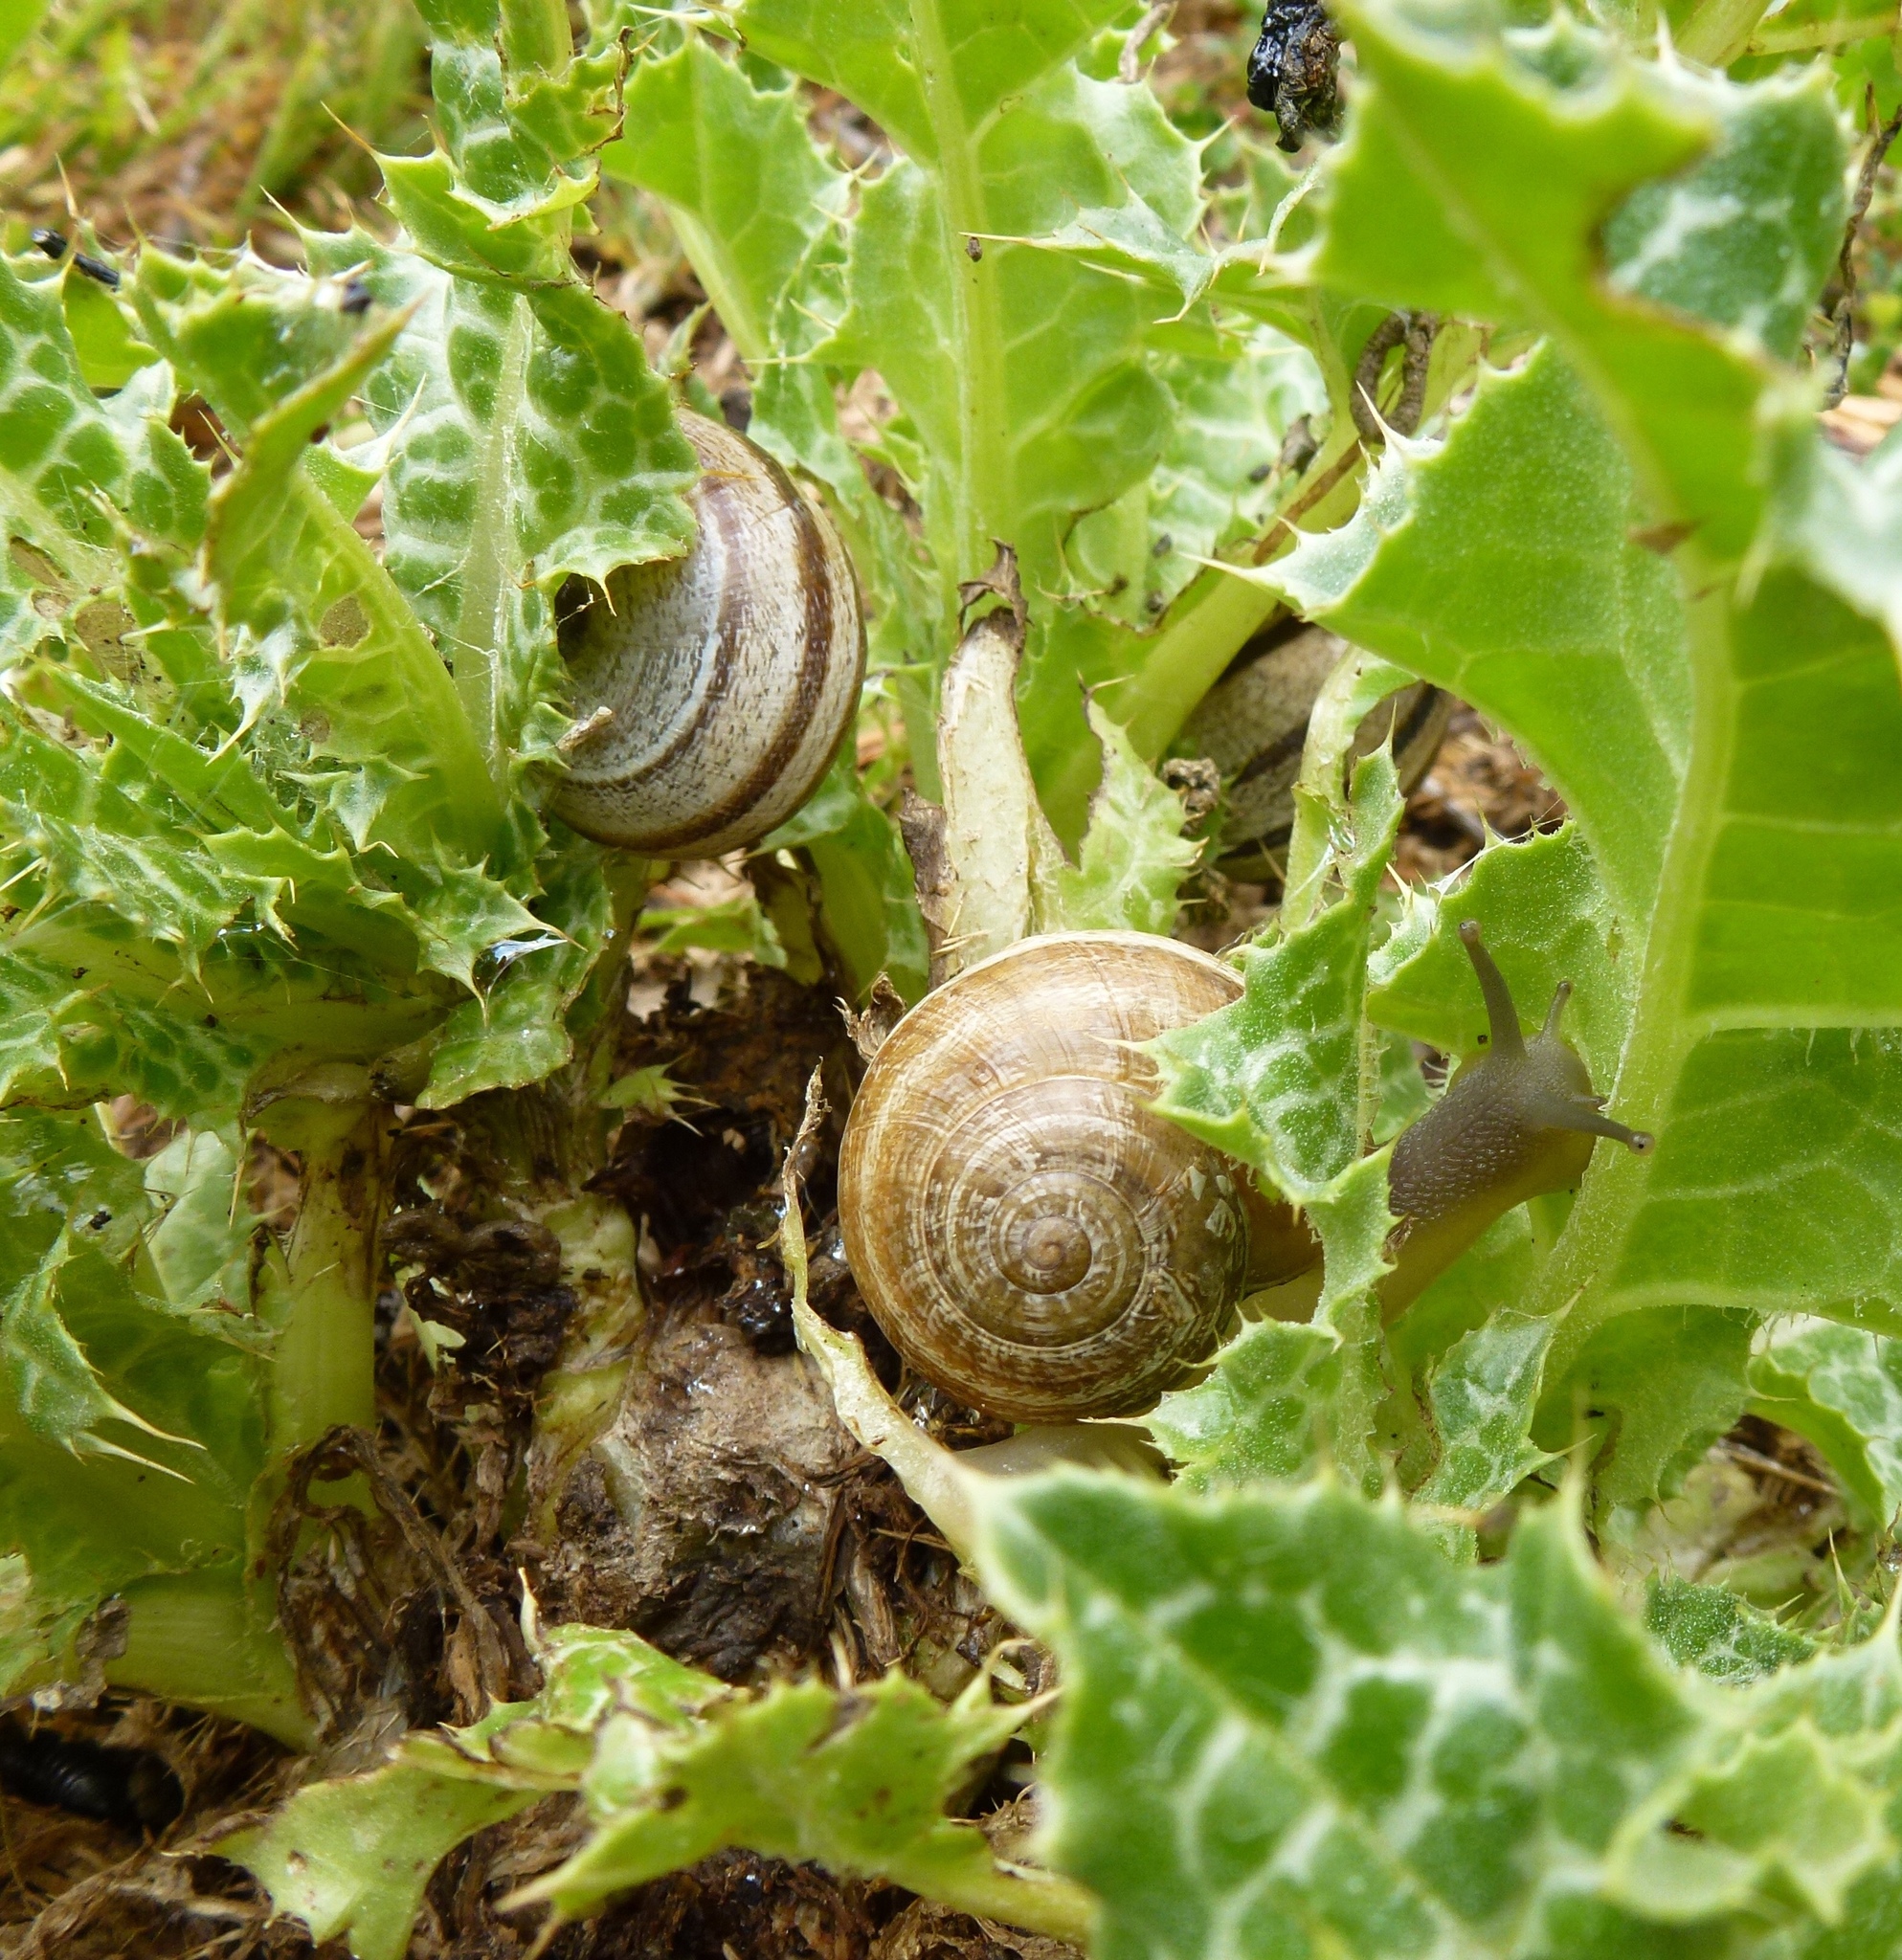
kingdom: Animalia
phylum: Mollusca
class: Gastropoda
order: Stylommatophora
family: Helicidae
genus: Otala
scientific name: Otala lactea
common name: Milk snail
